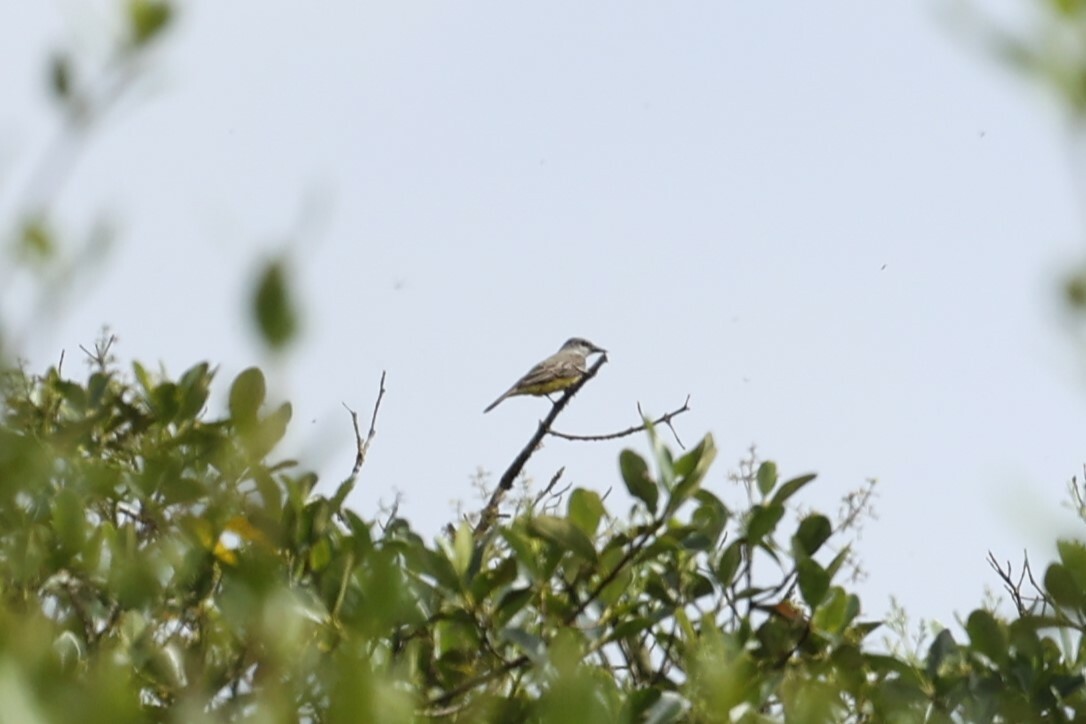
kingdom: Animalia
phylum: Chordata
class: Aves
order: Passeriformes
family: Tyrannidae
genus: Tyrannus
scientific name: Tyrannus melancholicus
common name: Tropical kingbird
